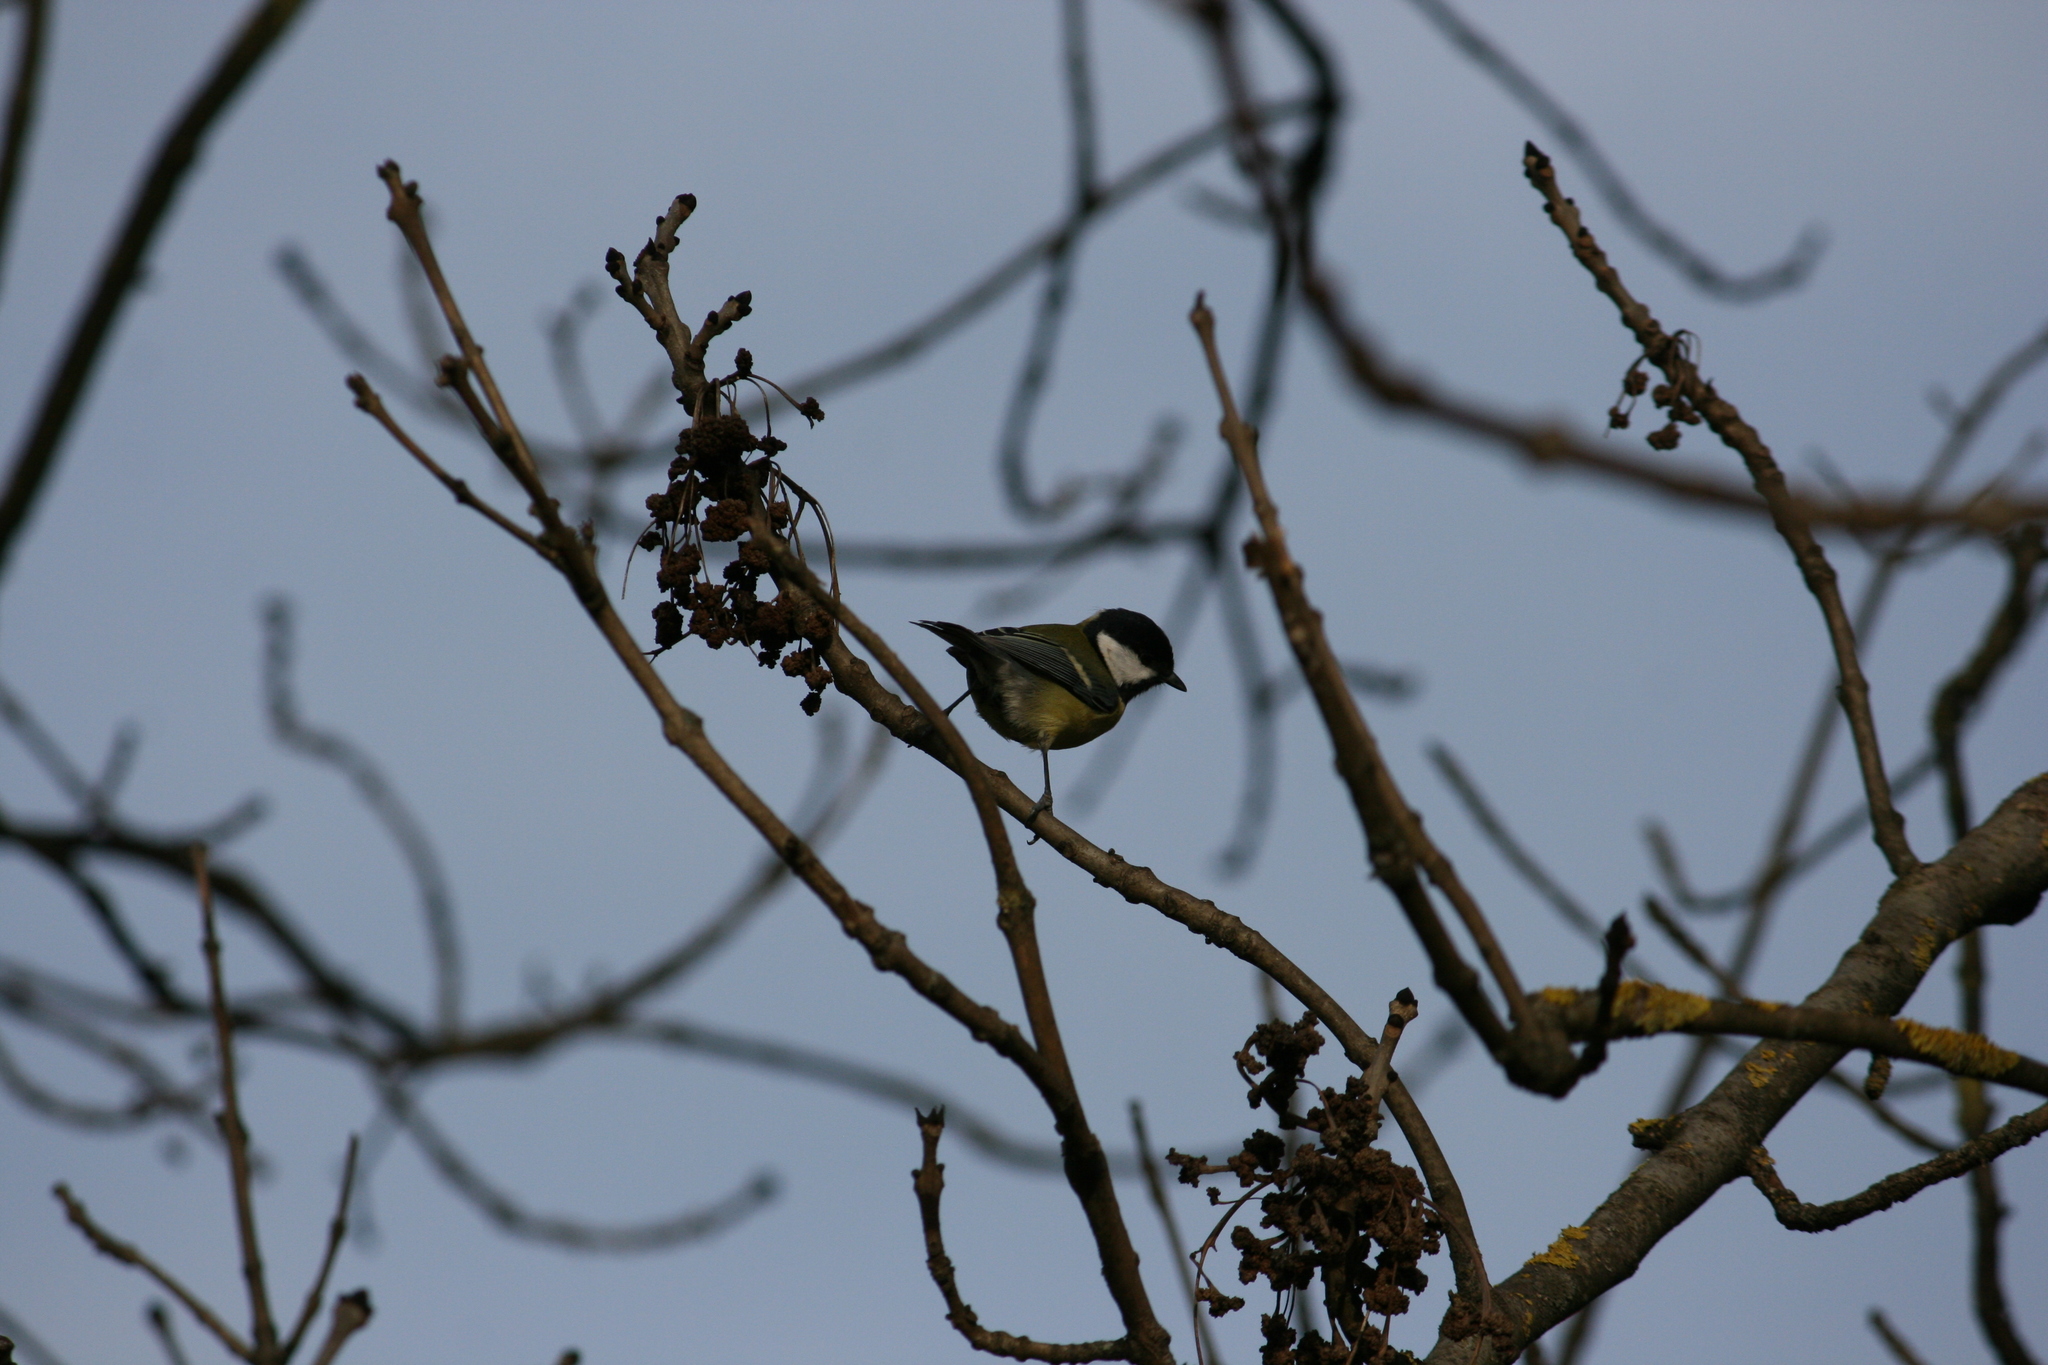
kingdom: Animalia
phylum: Chordata
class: Aves
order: Passeriformes
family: Paridae
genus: Parus
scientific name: Parus major
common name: Great tit
